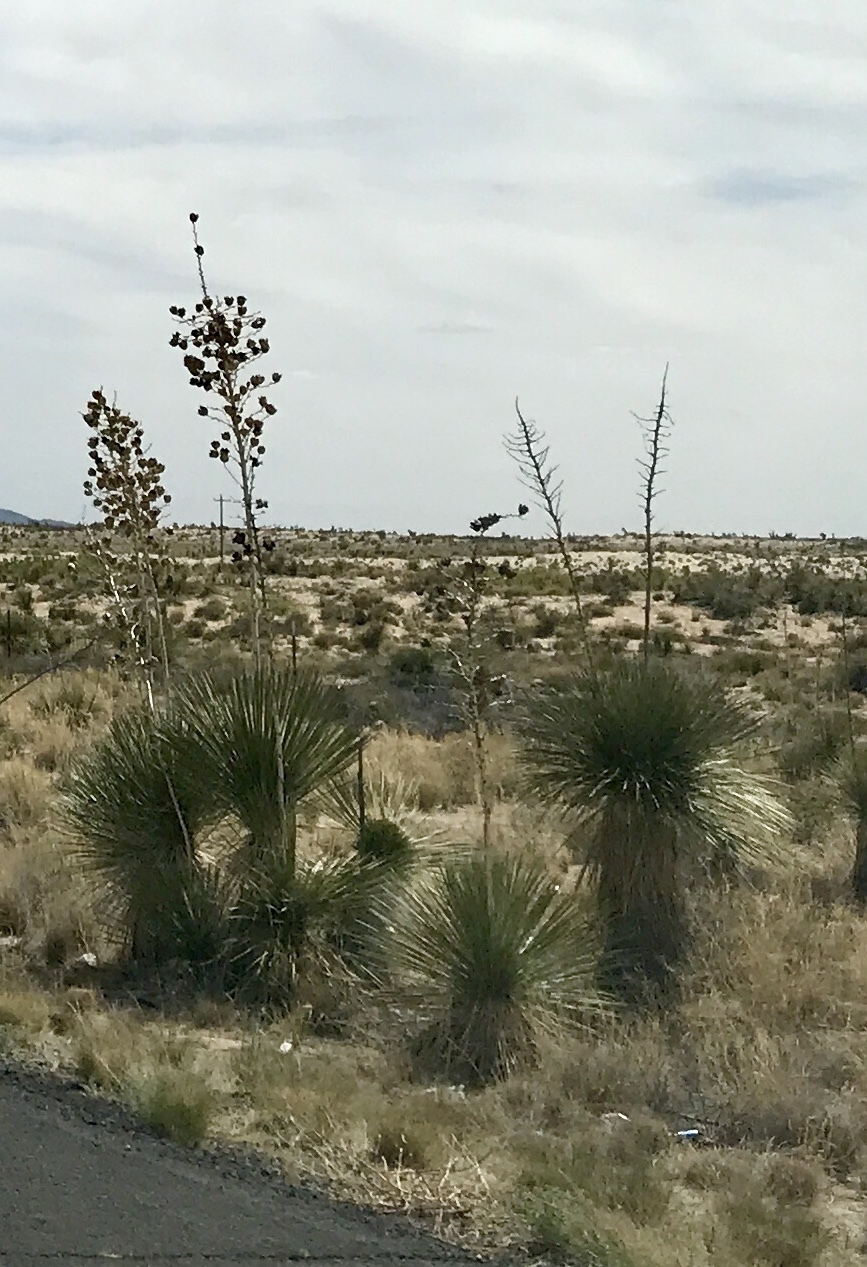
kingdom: Plantae
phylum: Tracheophyta
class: Liliopsida
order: Asparagales
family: Asparagaceae
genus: Yucca
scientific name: Yucca elata
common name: Palmella
